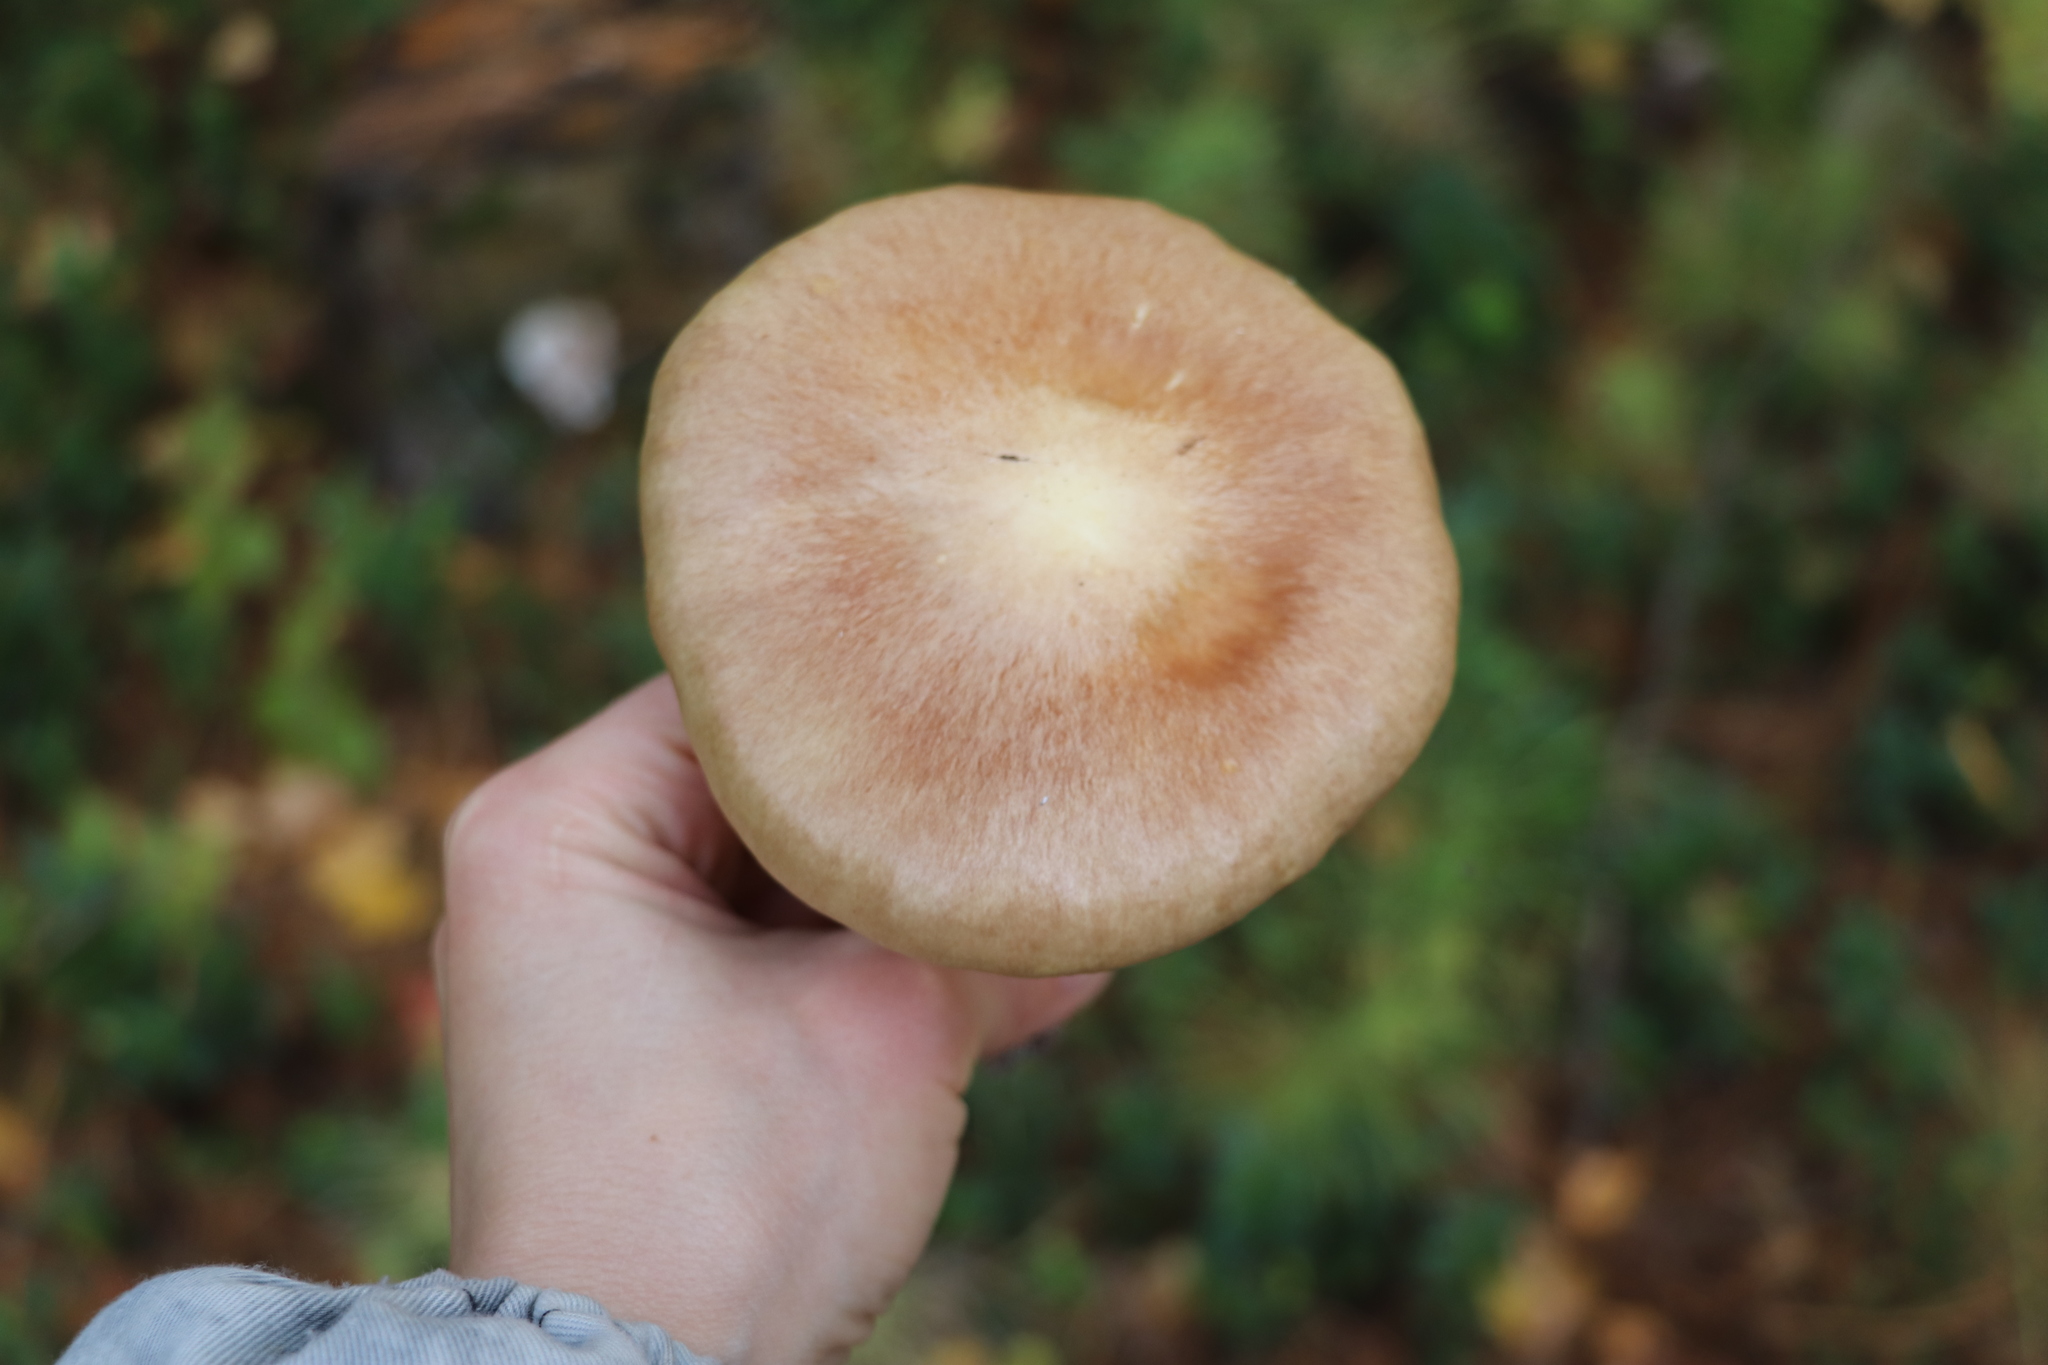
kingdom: Fungi
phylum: Basidiomycota
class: Agaricomycetes
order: Agaricales
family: Strophariaceae
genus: Stropharia
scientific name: Stropharia hornemannii
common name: Conifer roundhead
